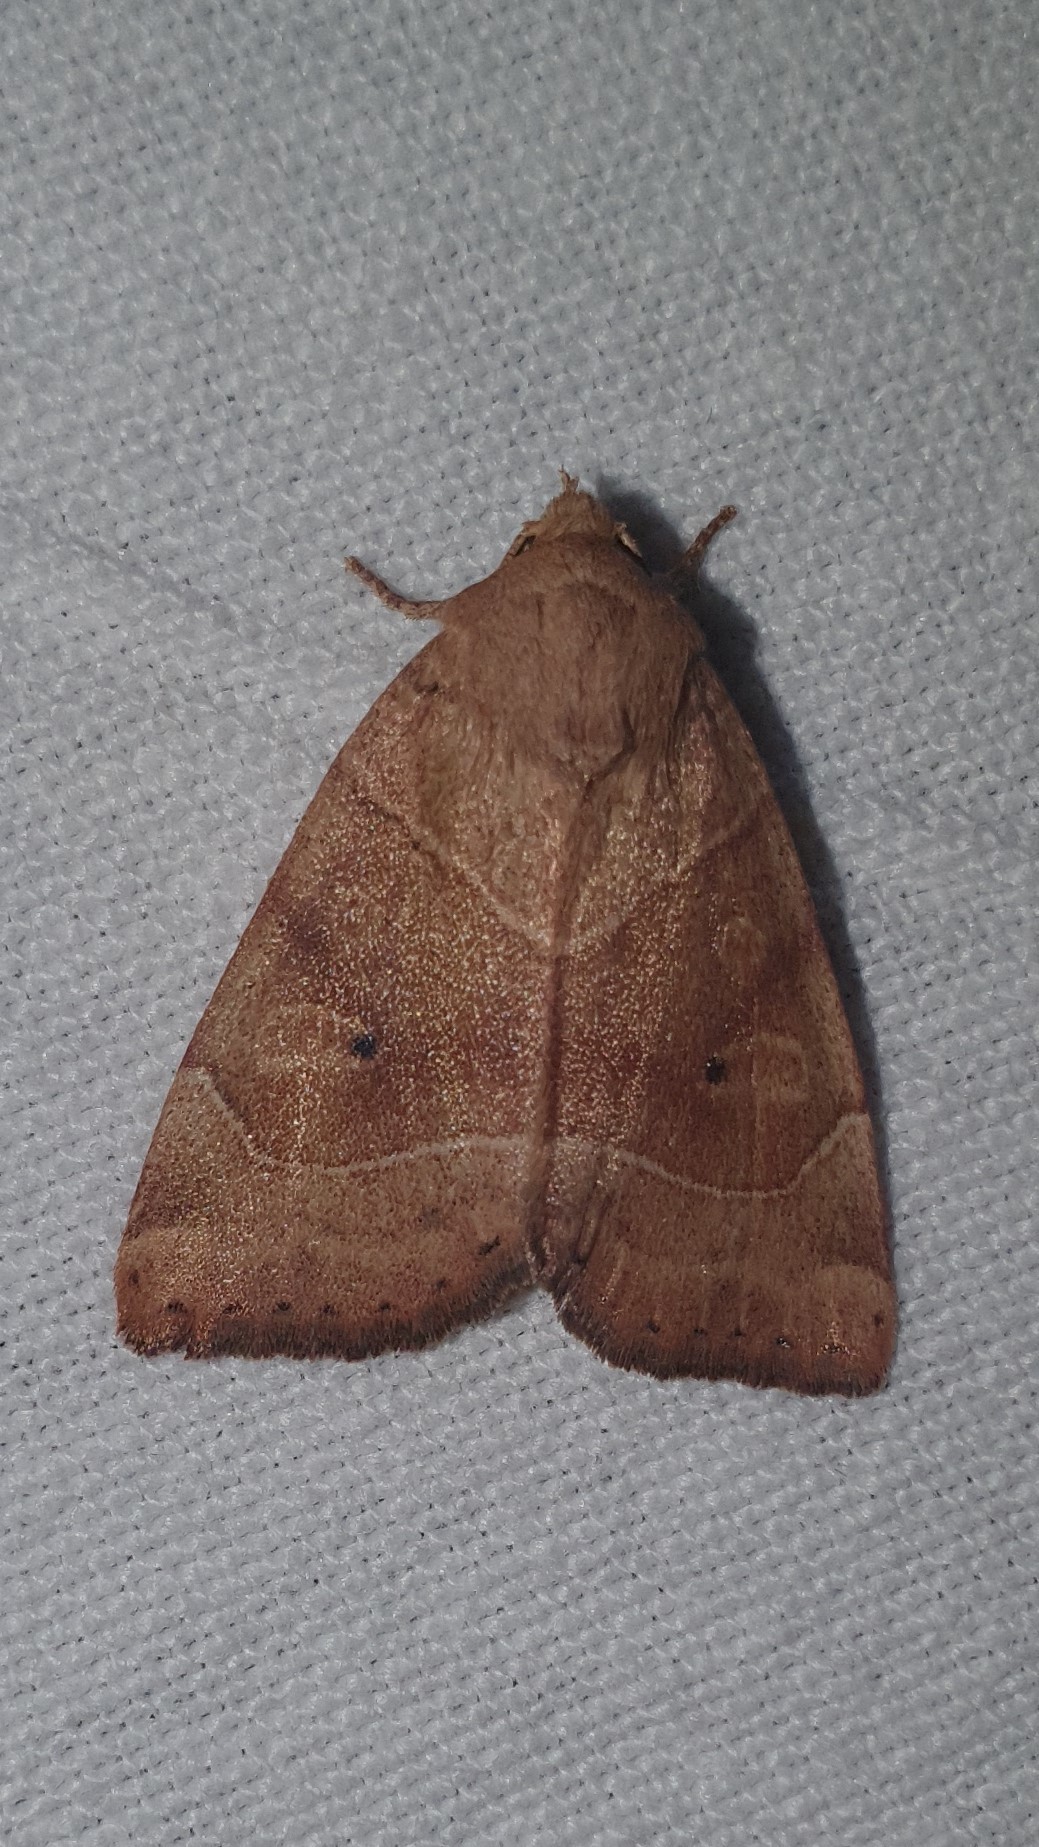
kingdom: Animalia
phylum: Arthropoda
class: Insecta
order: Lepidoptera
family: Noctuidae
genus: Cosmia
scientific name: Cosmia trapezina
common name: Dun-bar
